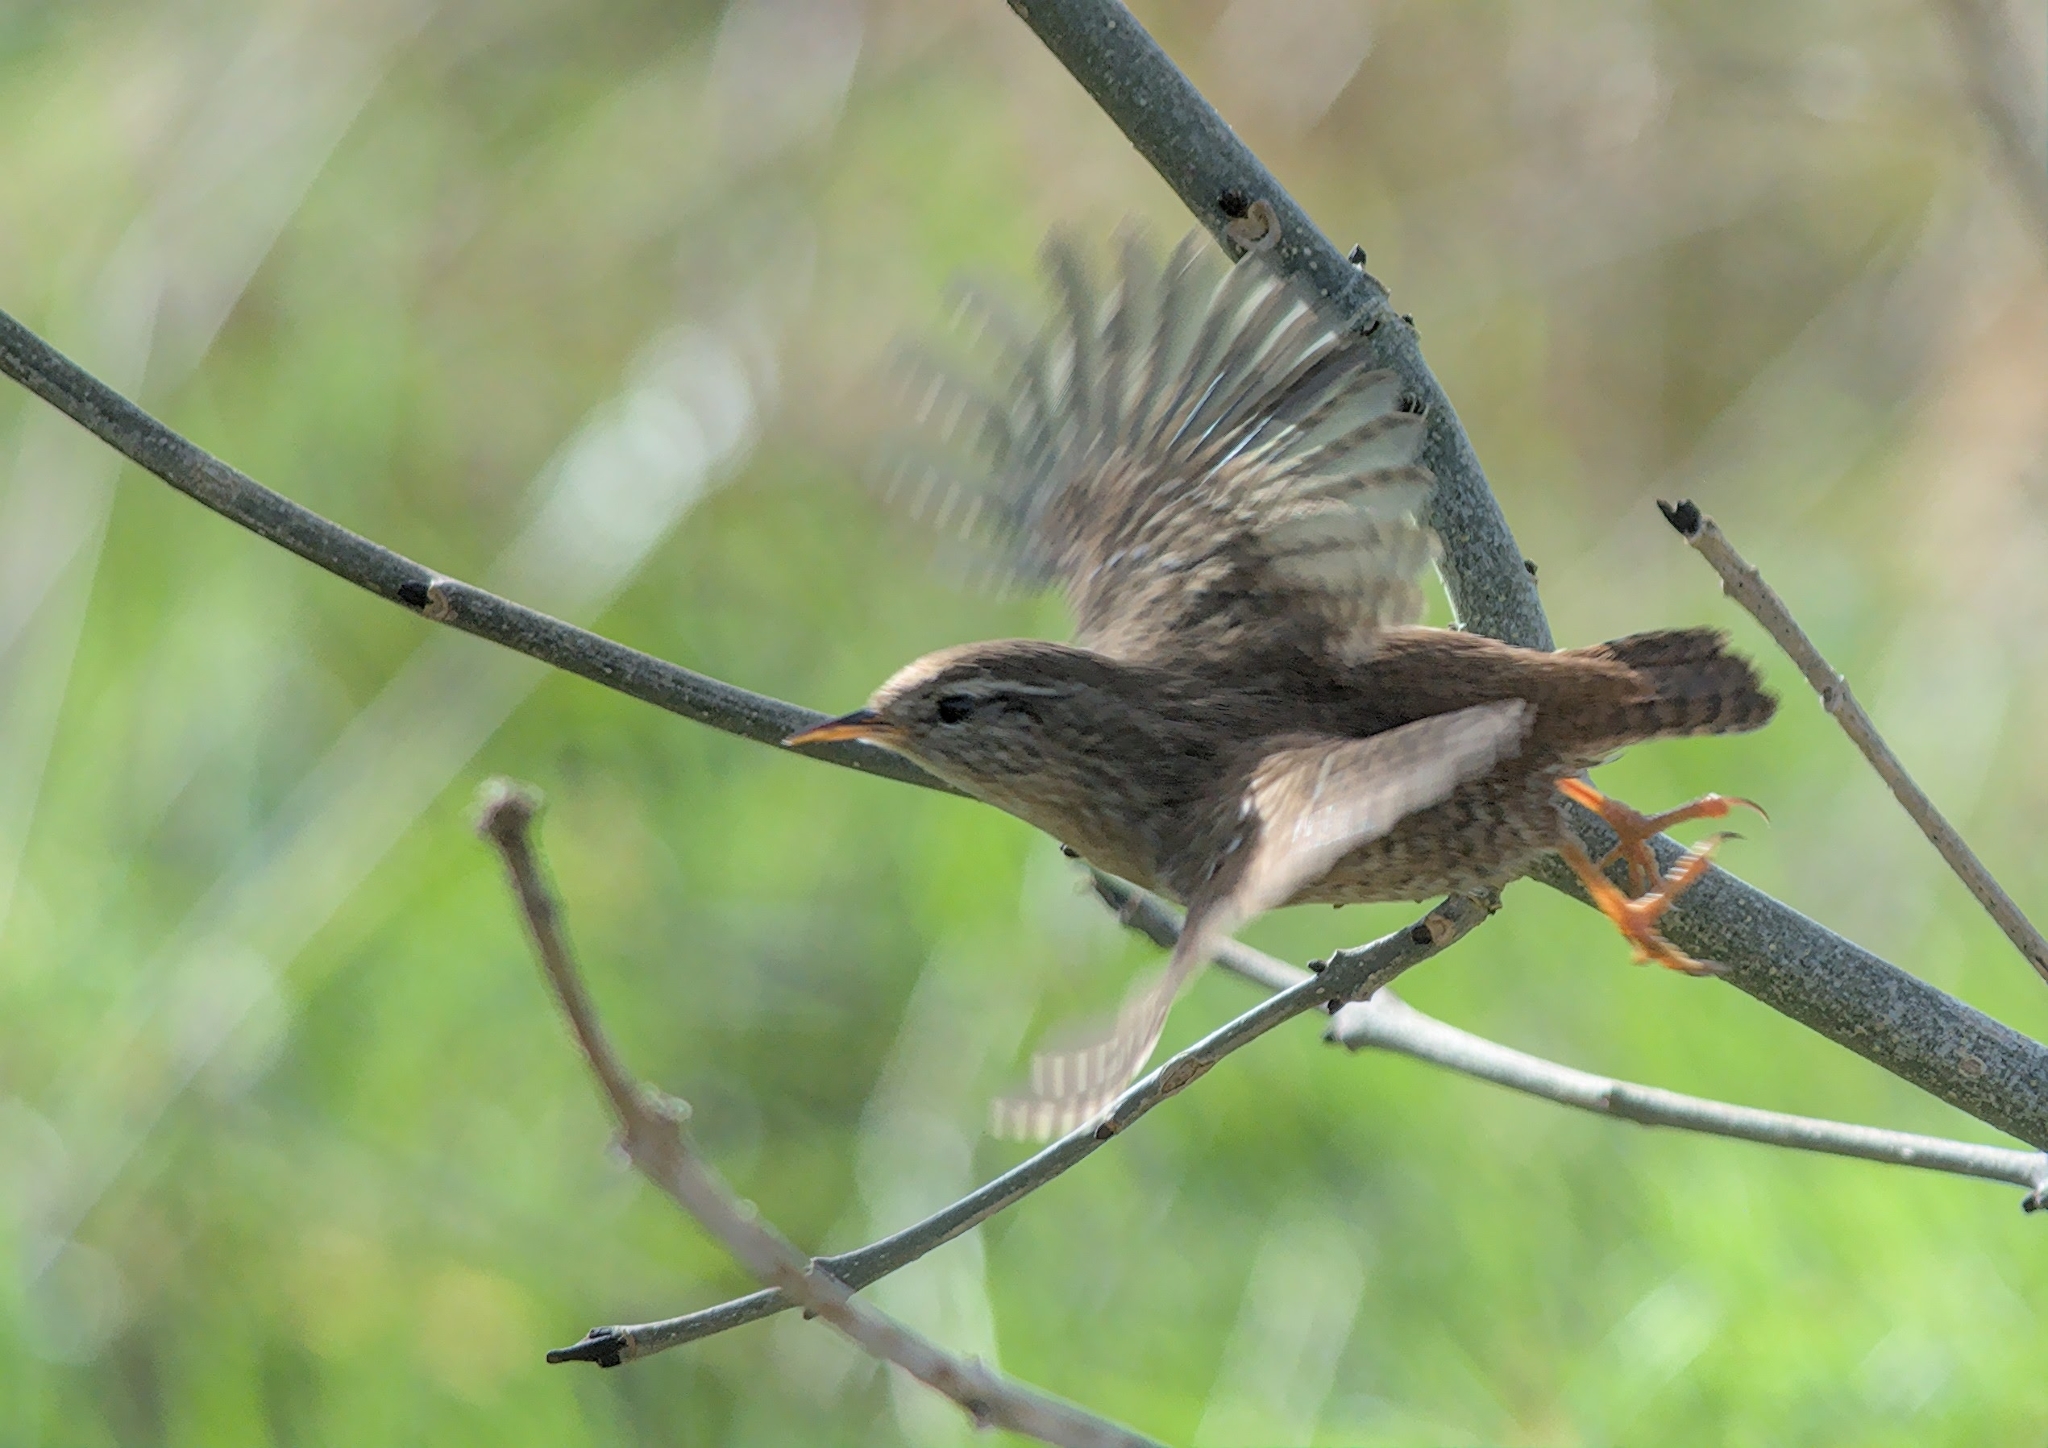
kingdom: Animalia
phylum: Chordata
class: Aves
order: Passeriformes
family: Troglodytidae
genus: Troglodytes
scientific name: Troglodytes troglodytes
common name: Eurasian wren
